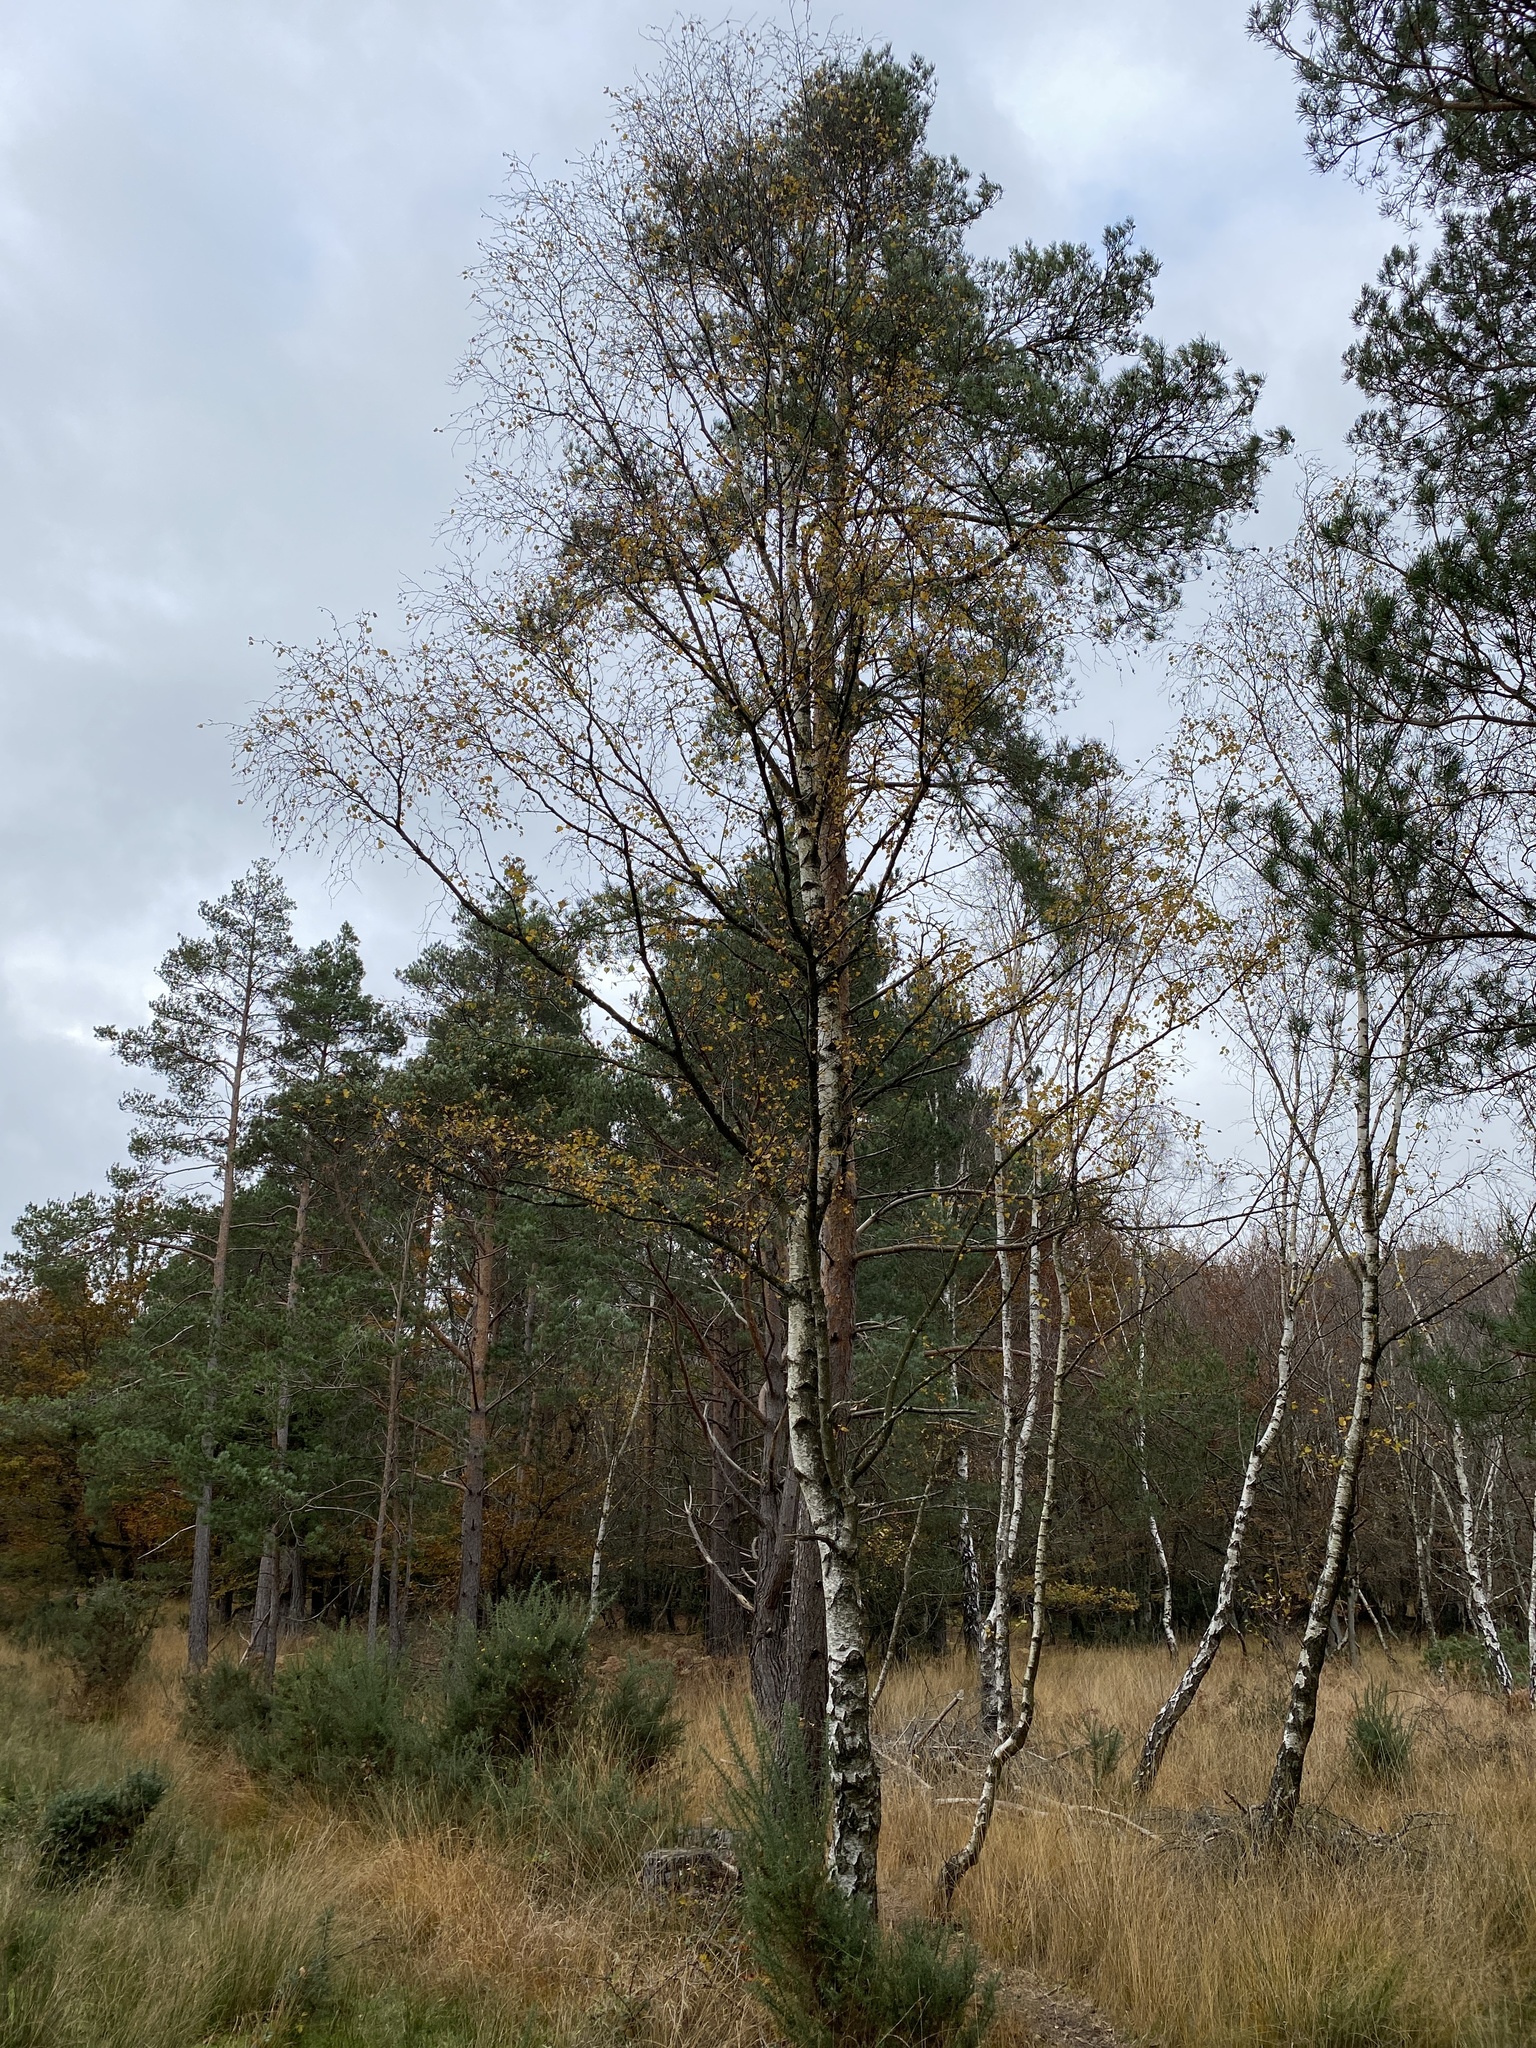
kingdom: Plantae
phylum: Tracheophyta
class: Magnoliopsida
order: Fagales
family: Betulaceae
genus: Betula
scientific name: Betula pendula
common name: Silver birch
